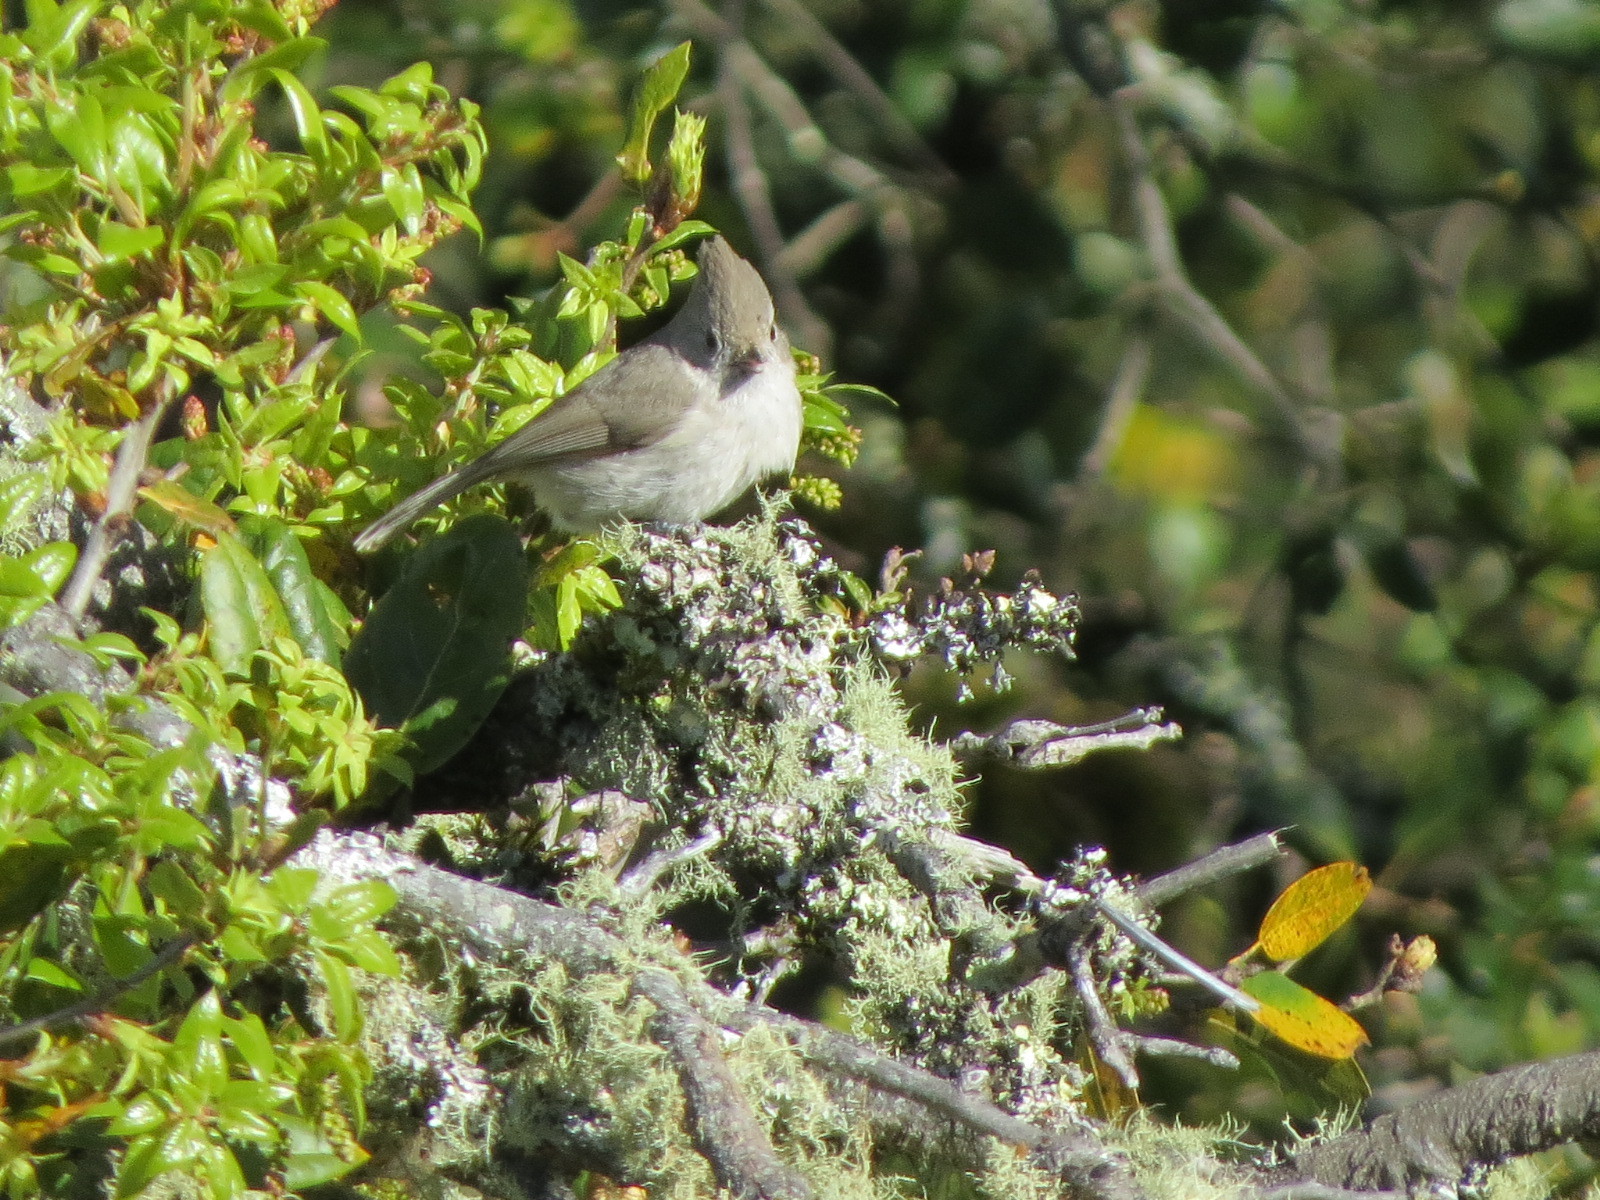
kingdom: Animalia
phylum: Chordata
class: Aves
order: Passeriformes
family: Paridae
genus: Baeolophus
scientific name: Baeolophus inornatus
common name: Oak titmouse
